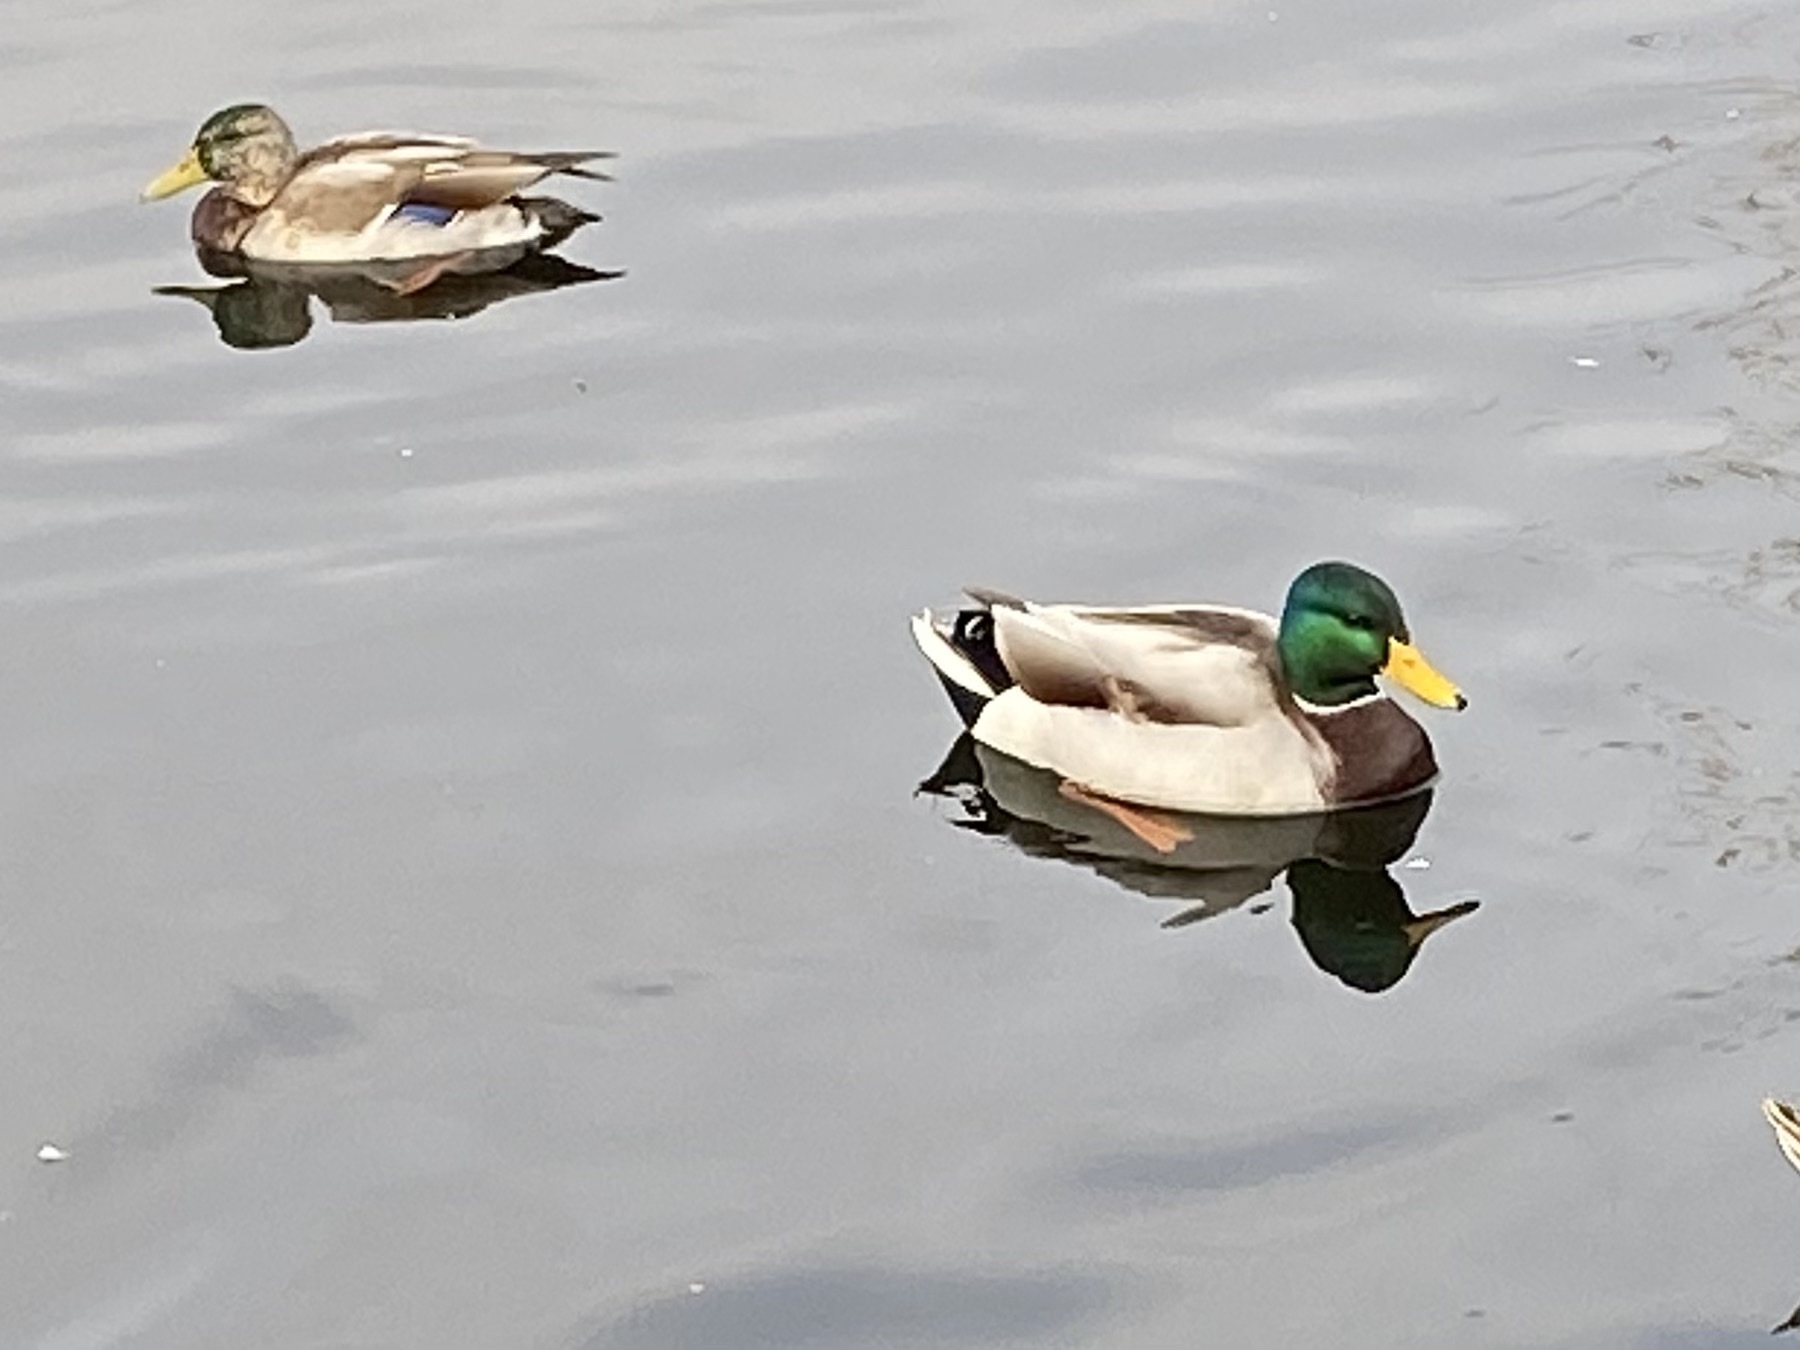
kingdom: Animalia
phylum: Chordata
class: Aves
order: Anseriformes
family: Anatidae
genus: Anas
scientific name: Anas platyrhynchos
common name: Mallard
